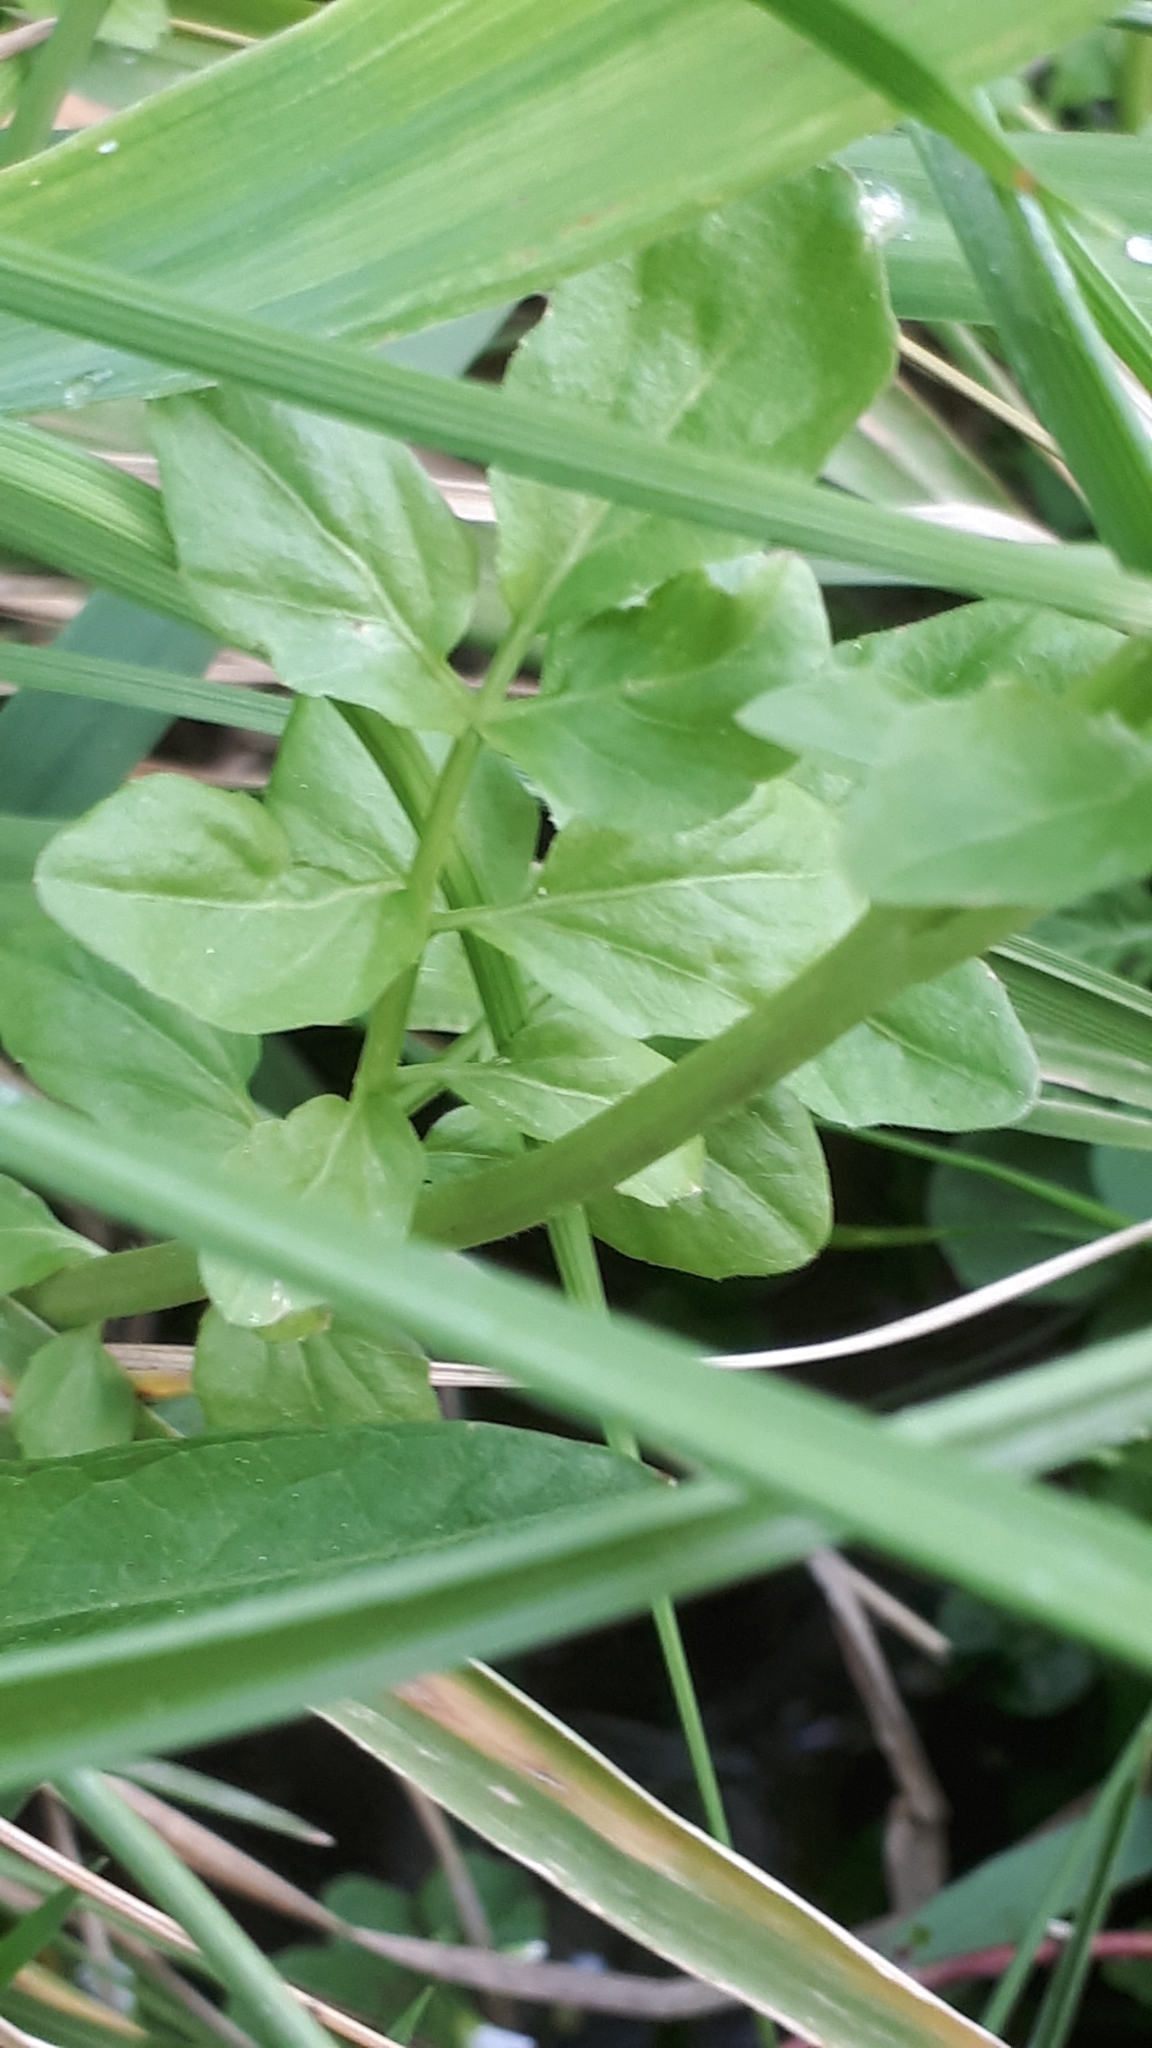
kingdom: Plantae
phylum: Tracheophyta
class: Magnoliopsida
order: Brassicales
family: Brassicaceae
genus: Cardamine
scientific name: Cardamine amara
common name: Large bitter-cress
